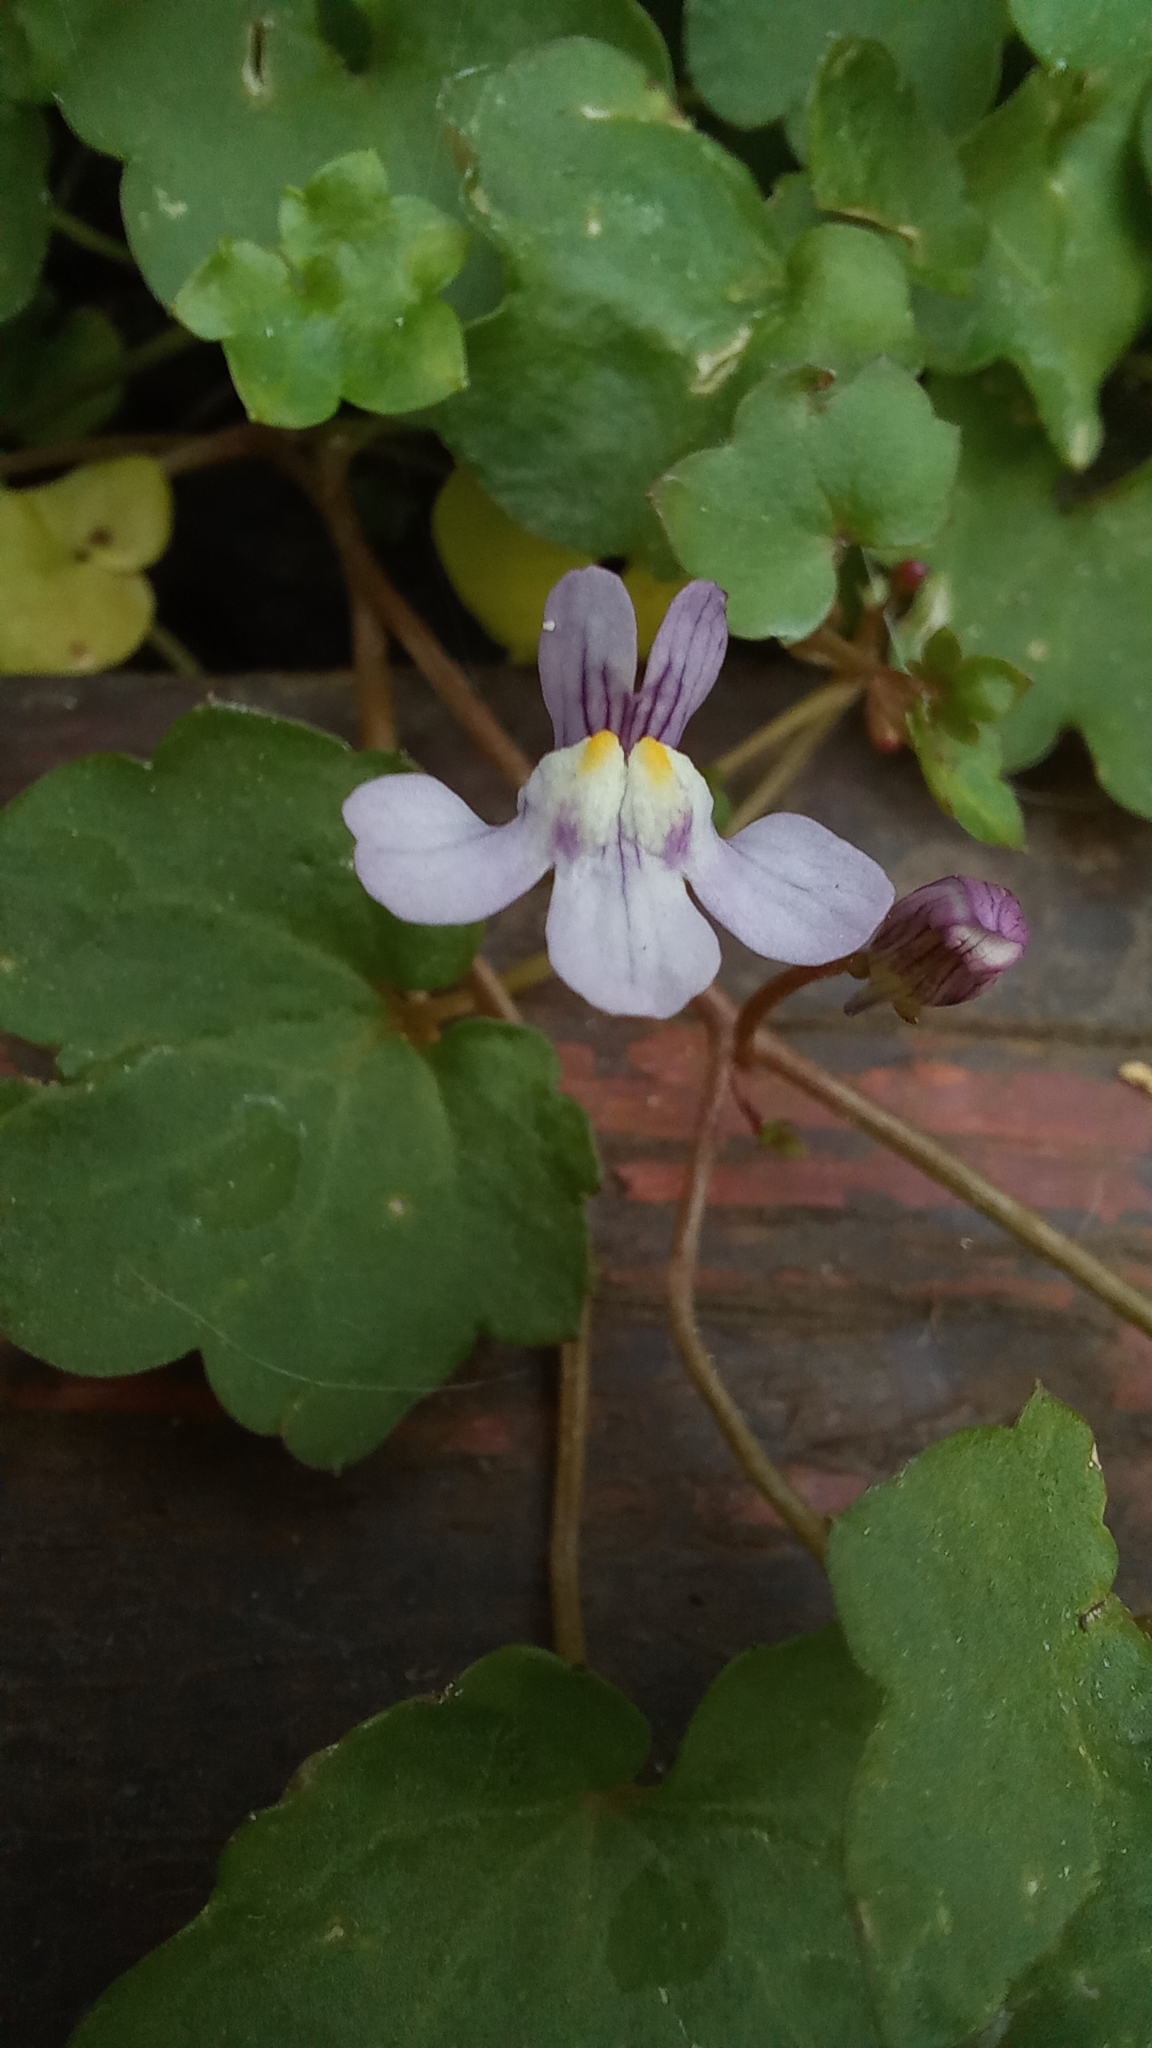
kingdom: Plantae
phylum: Tracheophyta
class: Magnoliopsida
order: Lamiales
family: Plantaginaceae
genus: Cymbalaria
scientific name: Cymbalaria muralis
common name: Ivy-leaved toadflax
